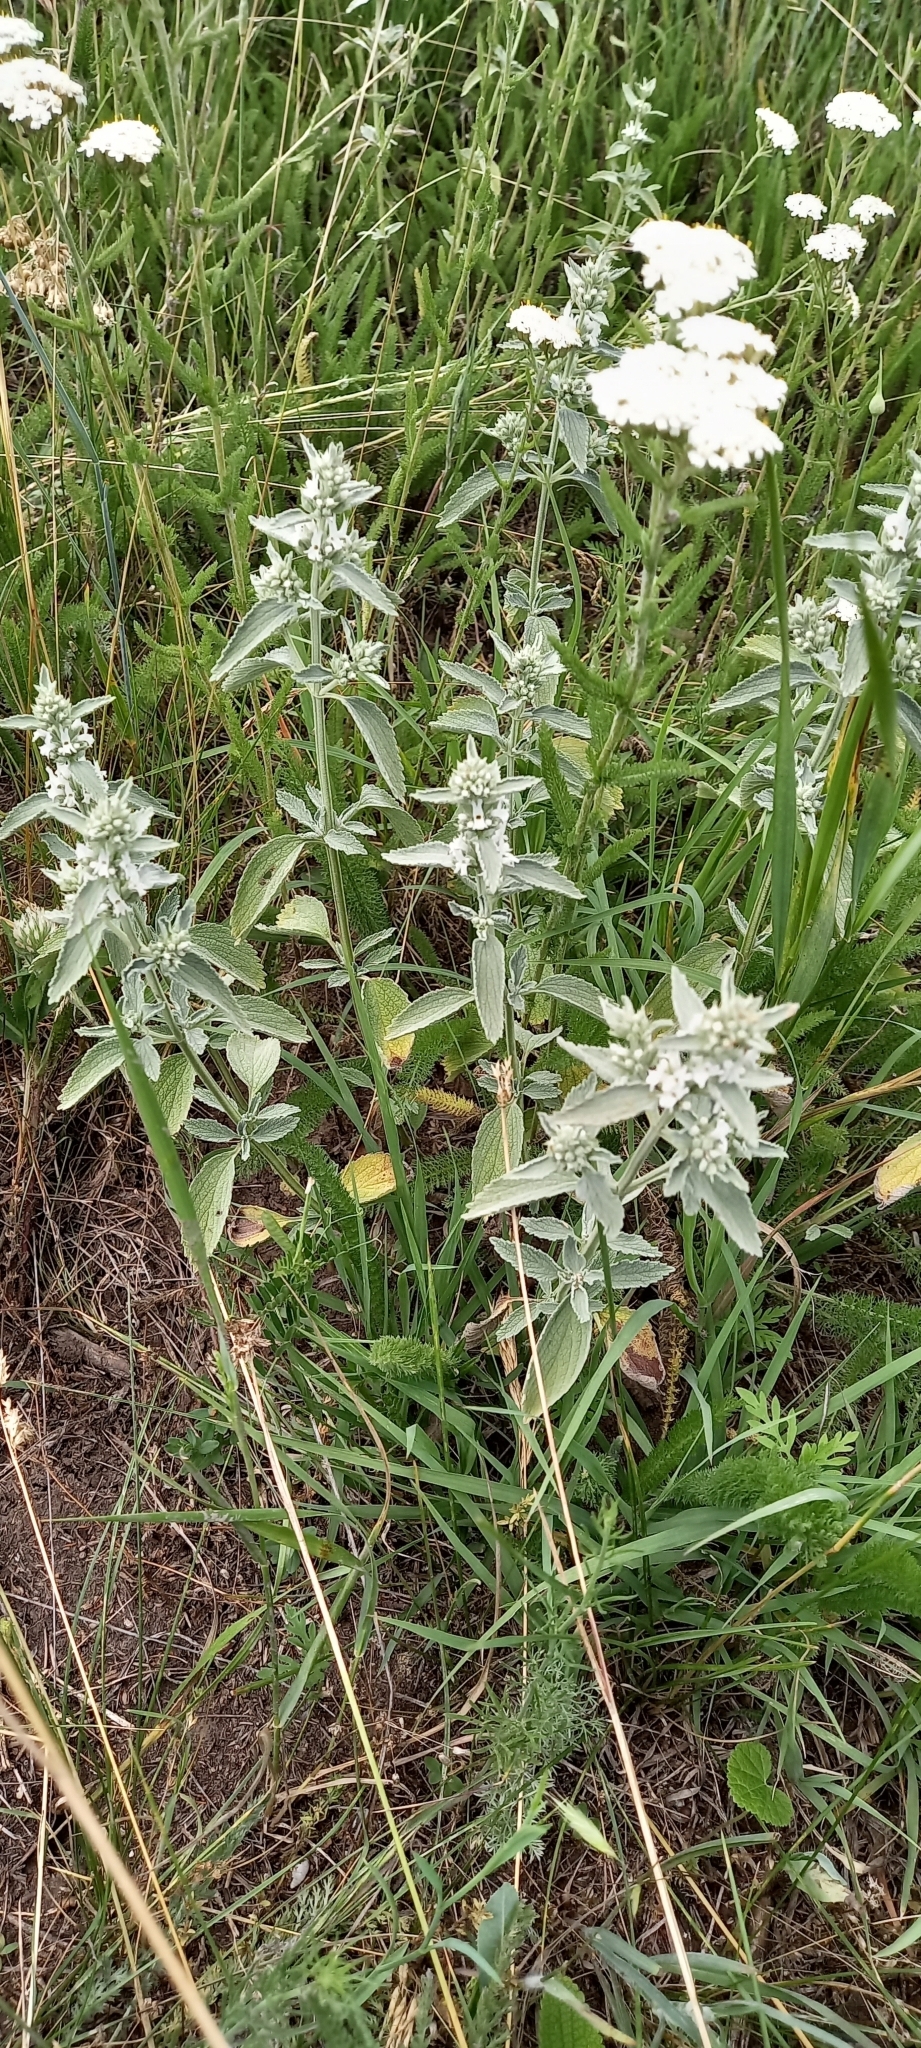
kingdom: Plantae
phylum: Tracheophyta
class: Magnoliopsida
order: Lamiales
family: Lamiaceae
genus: Marrubium
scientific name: Marrubium peregrinum
